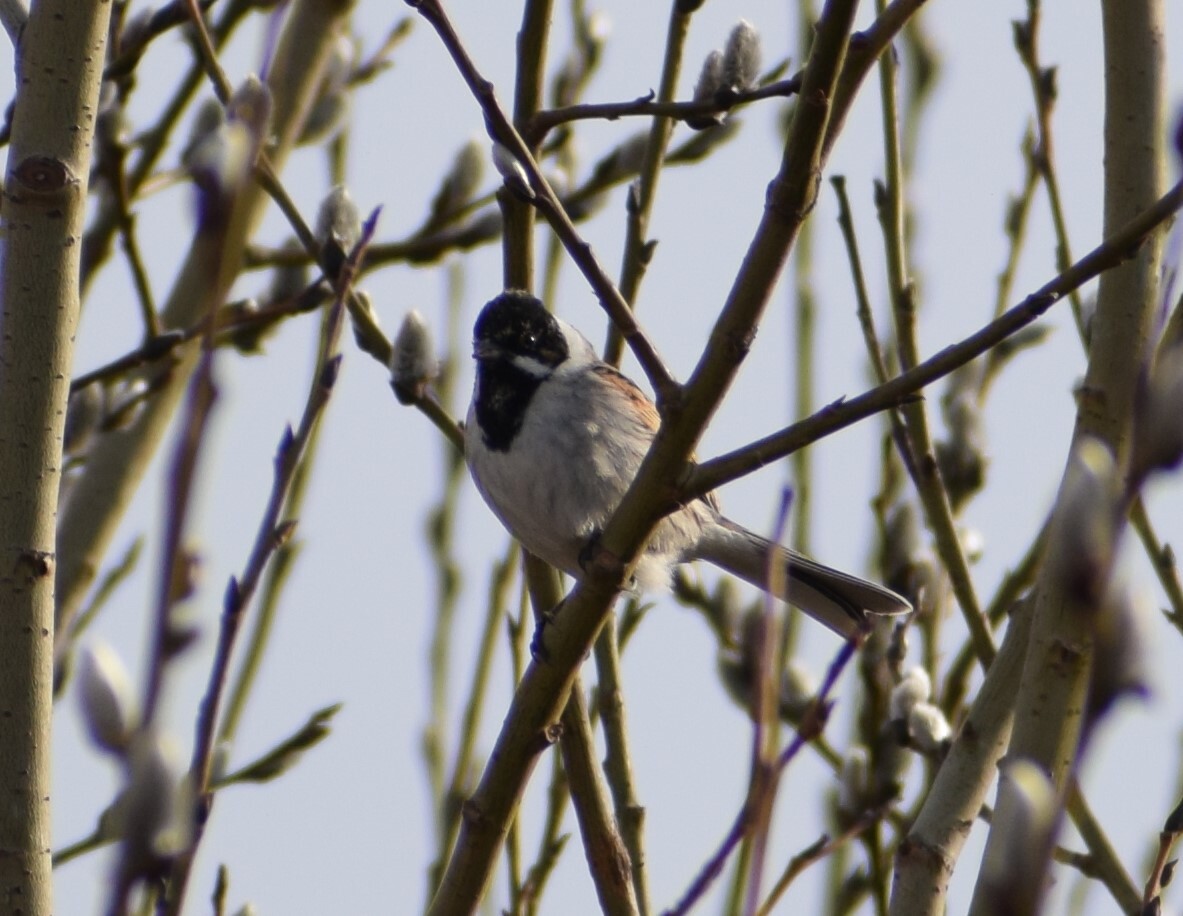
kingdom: Animalia
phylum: Chordata
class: Aves
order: Passeriformes
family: Emberizidae
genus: Emberiza
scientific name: Emberiza schoeniclus
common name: Reed bunting
